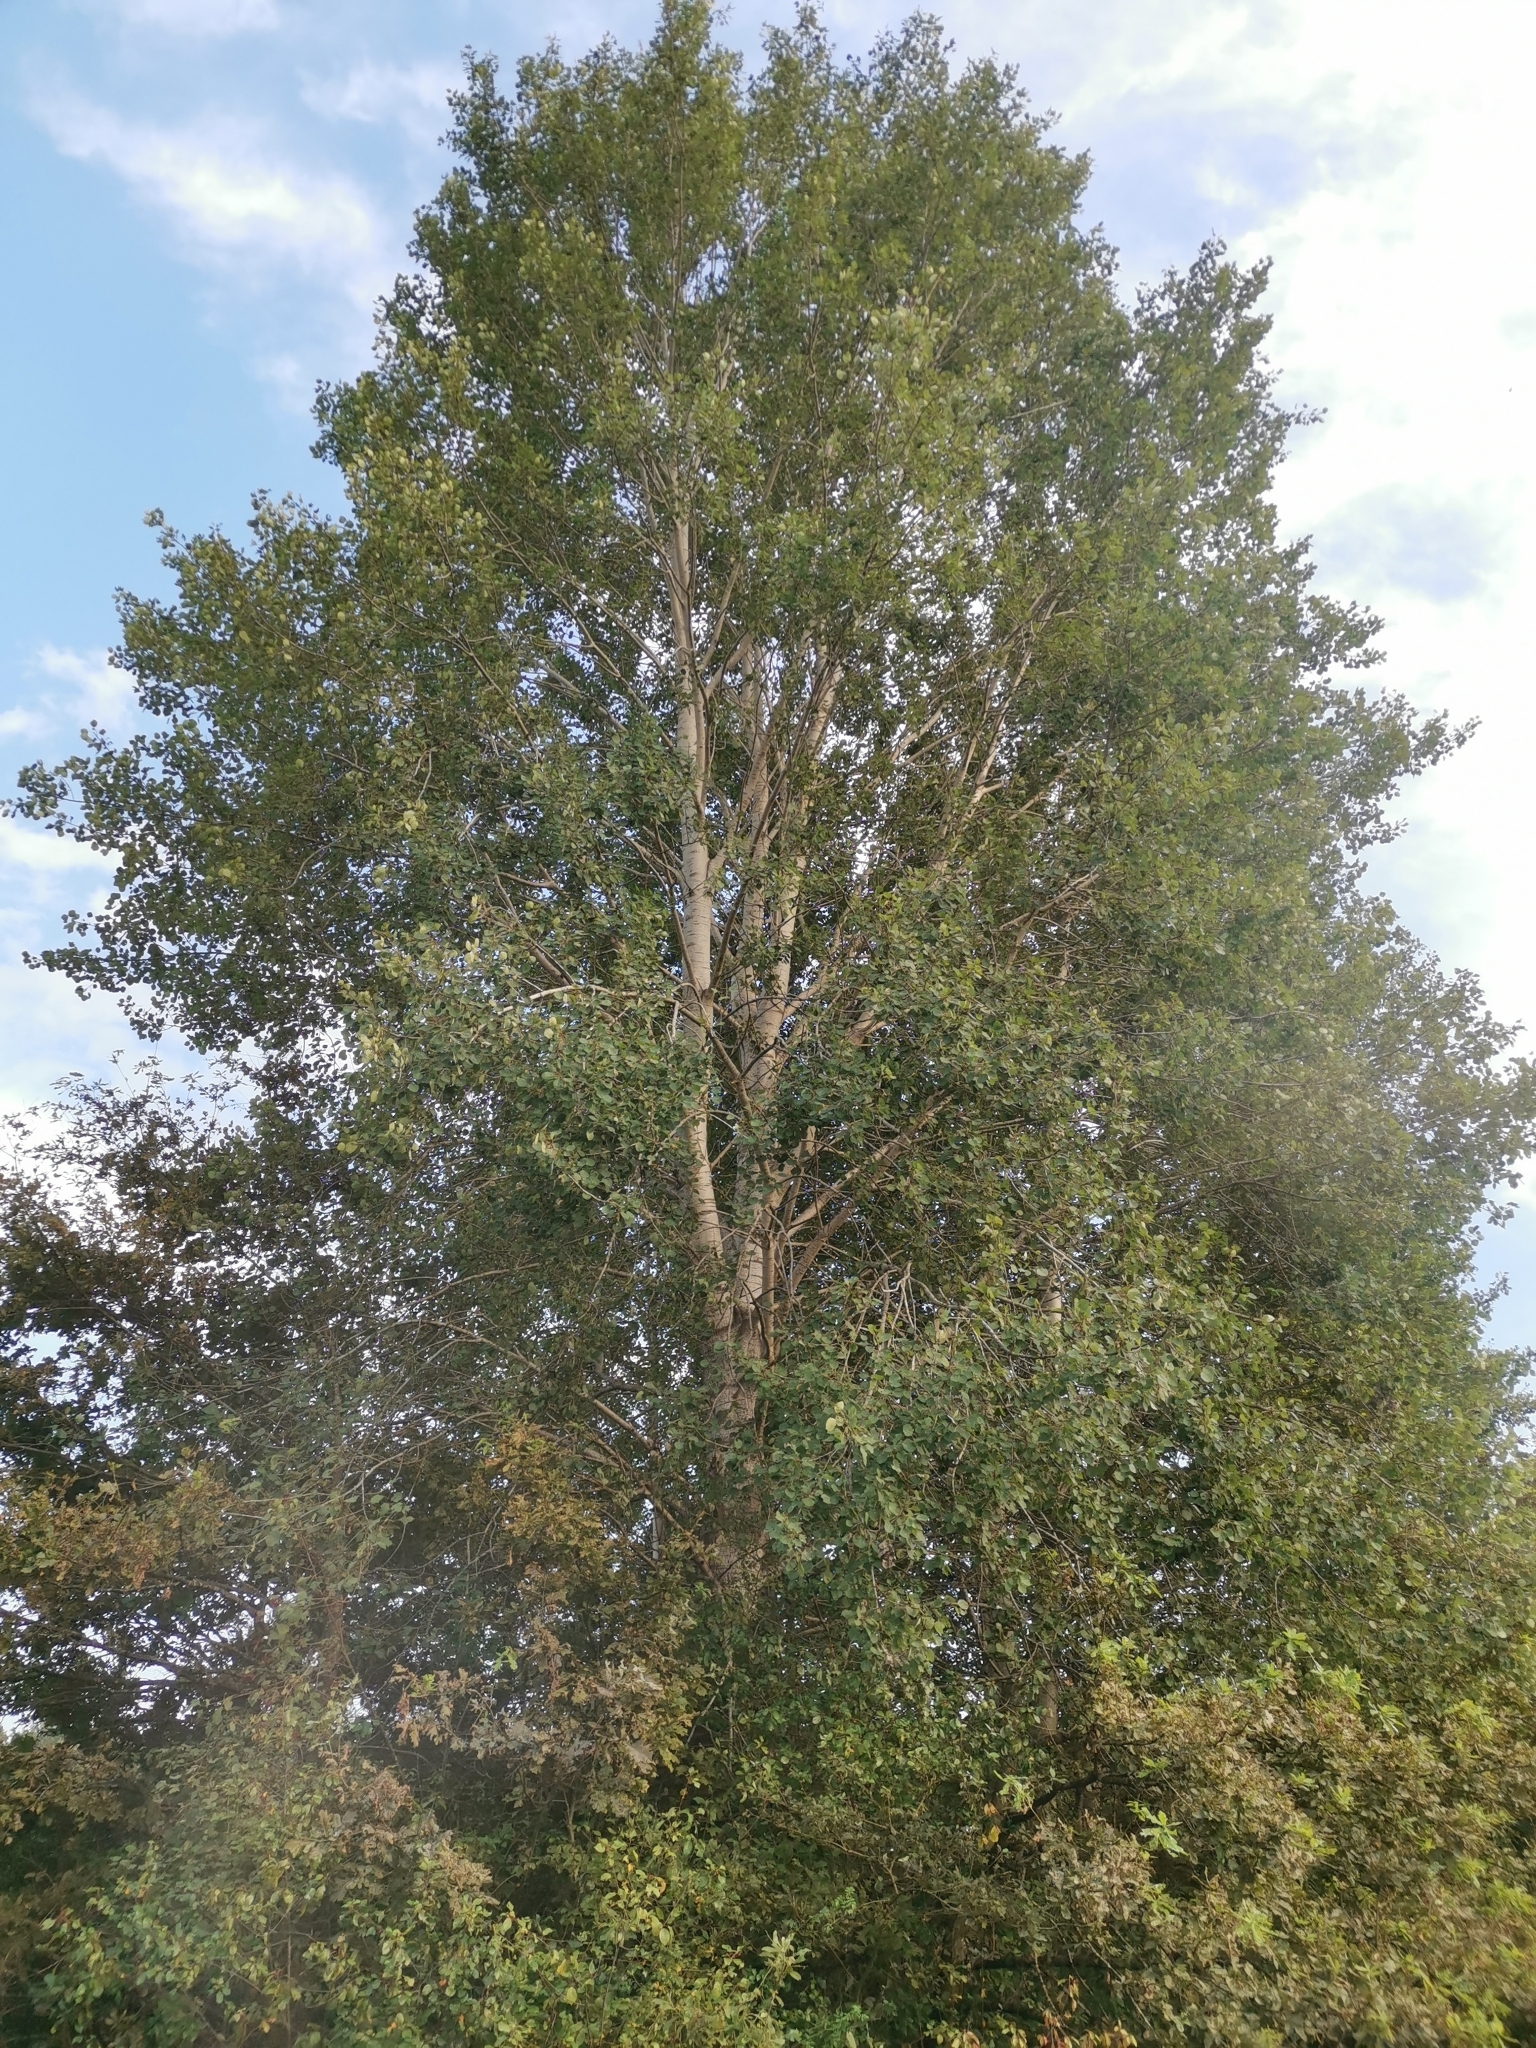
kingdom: Plantae
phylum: Tracheophyta
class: Magnoliopsida
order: Malpighiales
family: Salicaceae
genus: Populus
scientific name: Populus tremula
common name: European aspen
